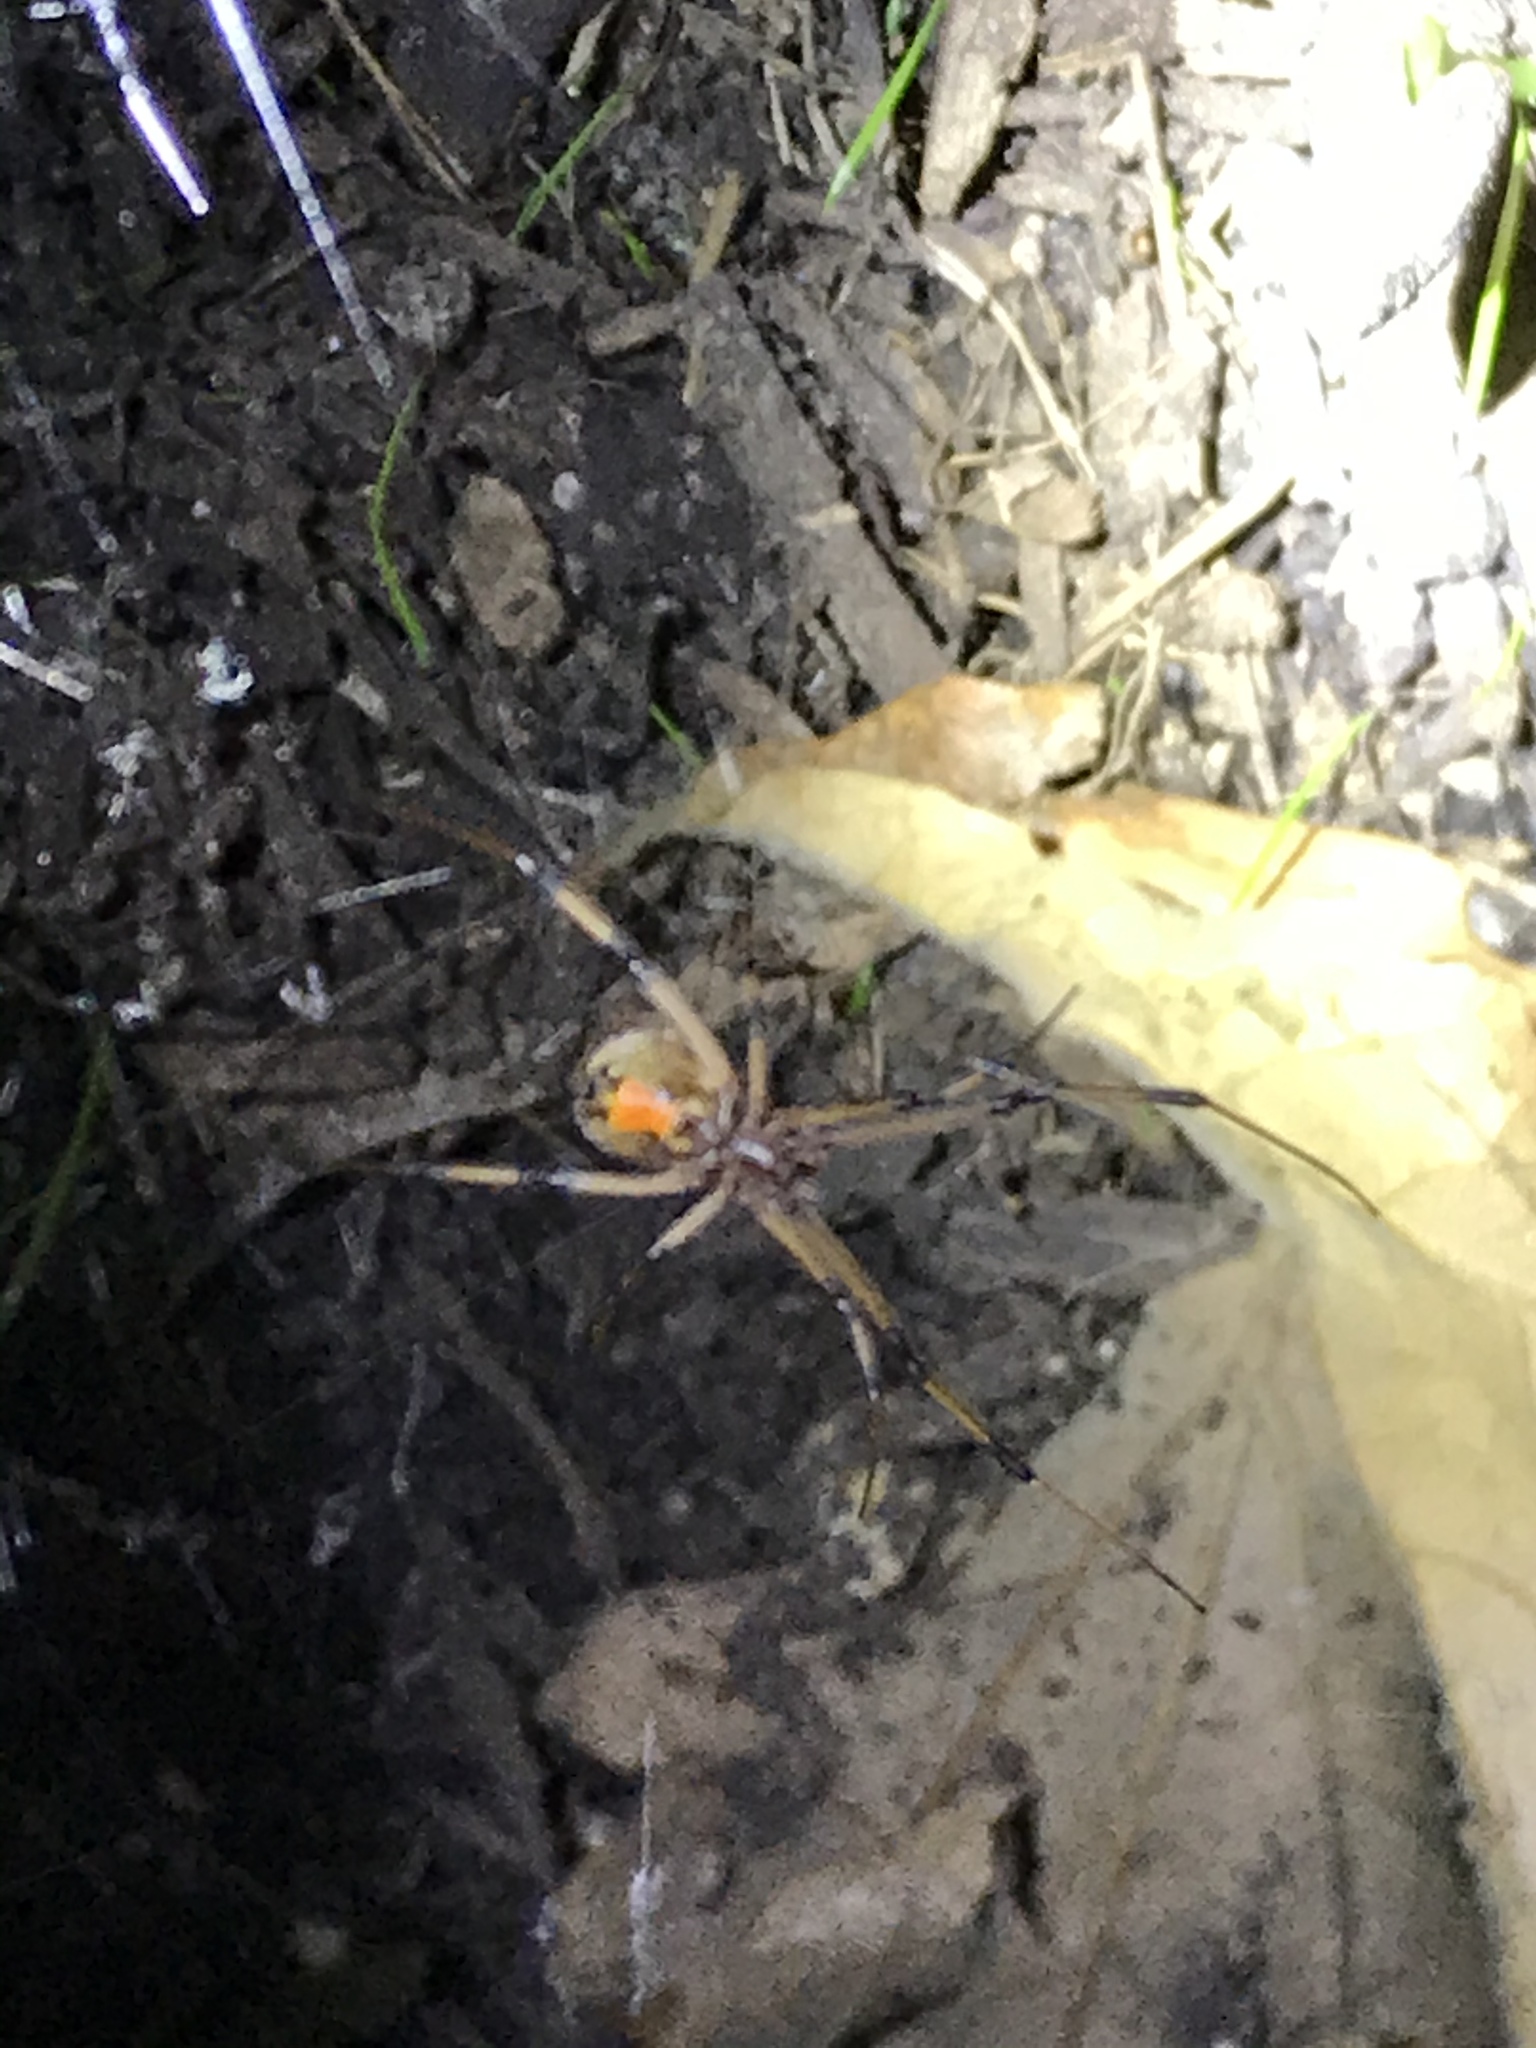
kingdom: Animalia
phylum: Arthropoda
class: Arachnida
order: Araneae
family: Theridiidae
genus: Latrodectus
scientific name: Latrodectus geometricus
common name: Brown widow spider
